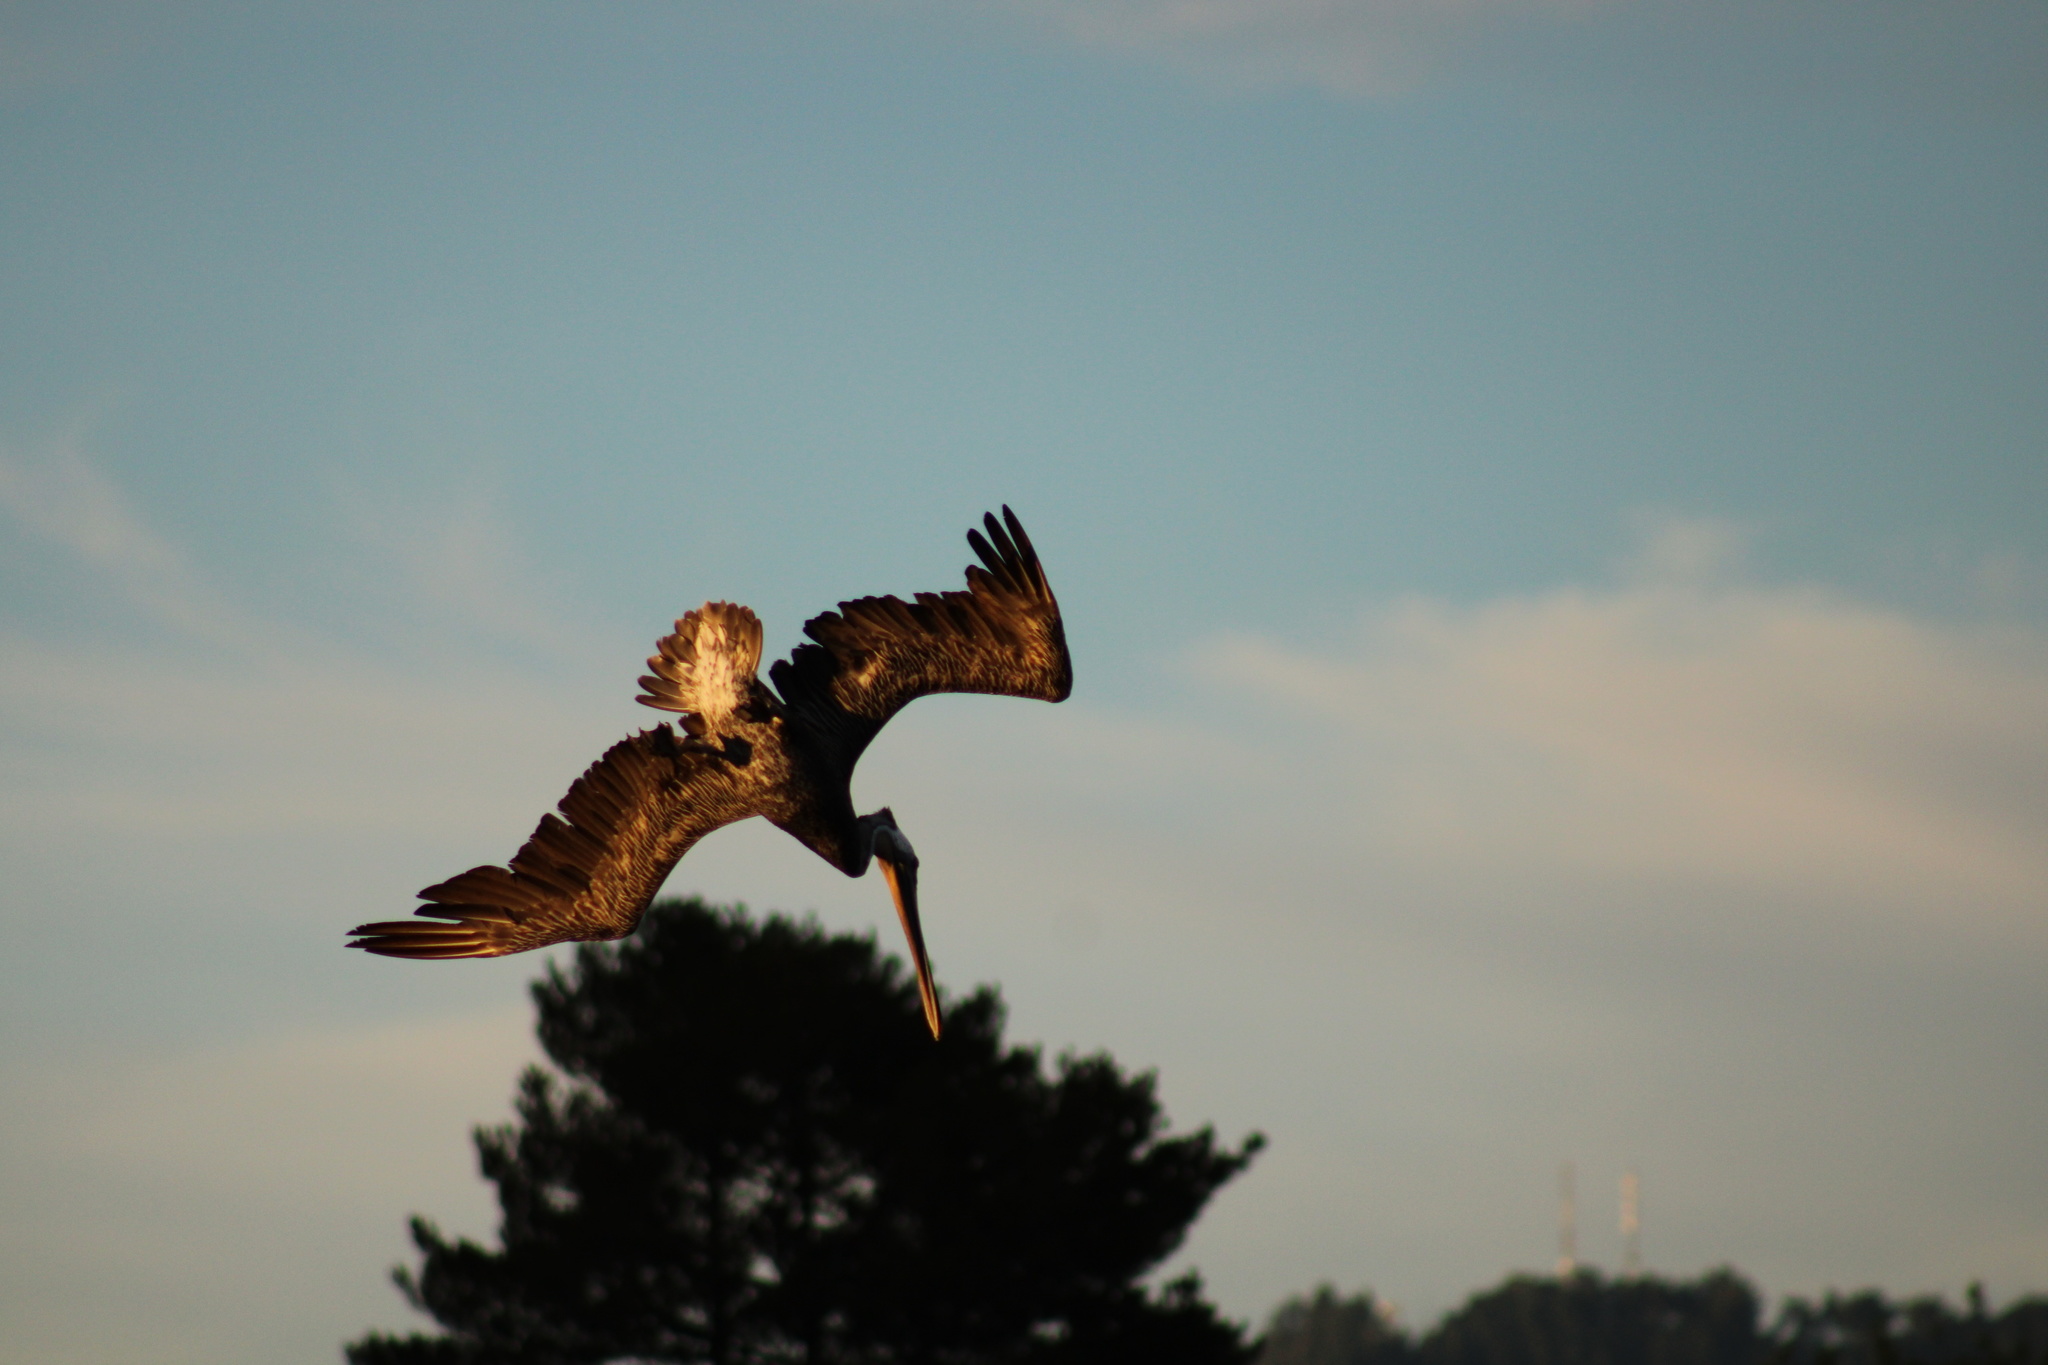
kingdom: Animalia
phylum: Chordata
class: Aves
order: Pelecaniformes
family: Pelecanidae
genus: Pelecanus
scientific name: Pelecanus occidentalis
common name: Brown pelican
